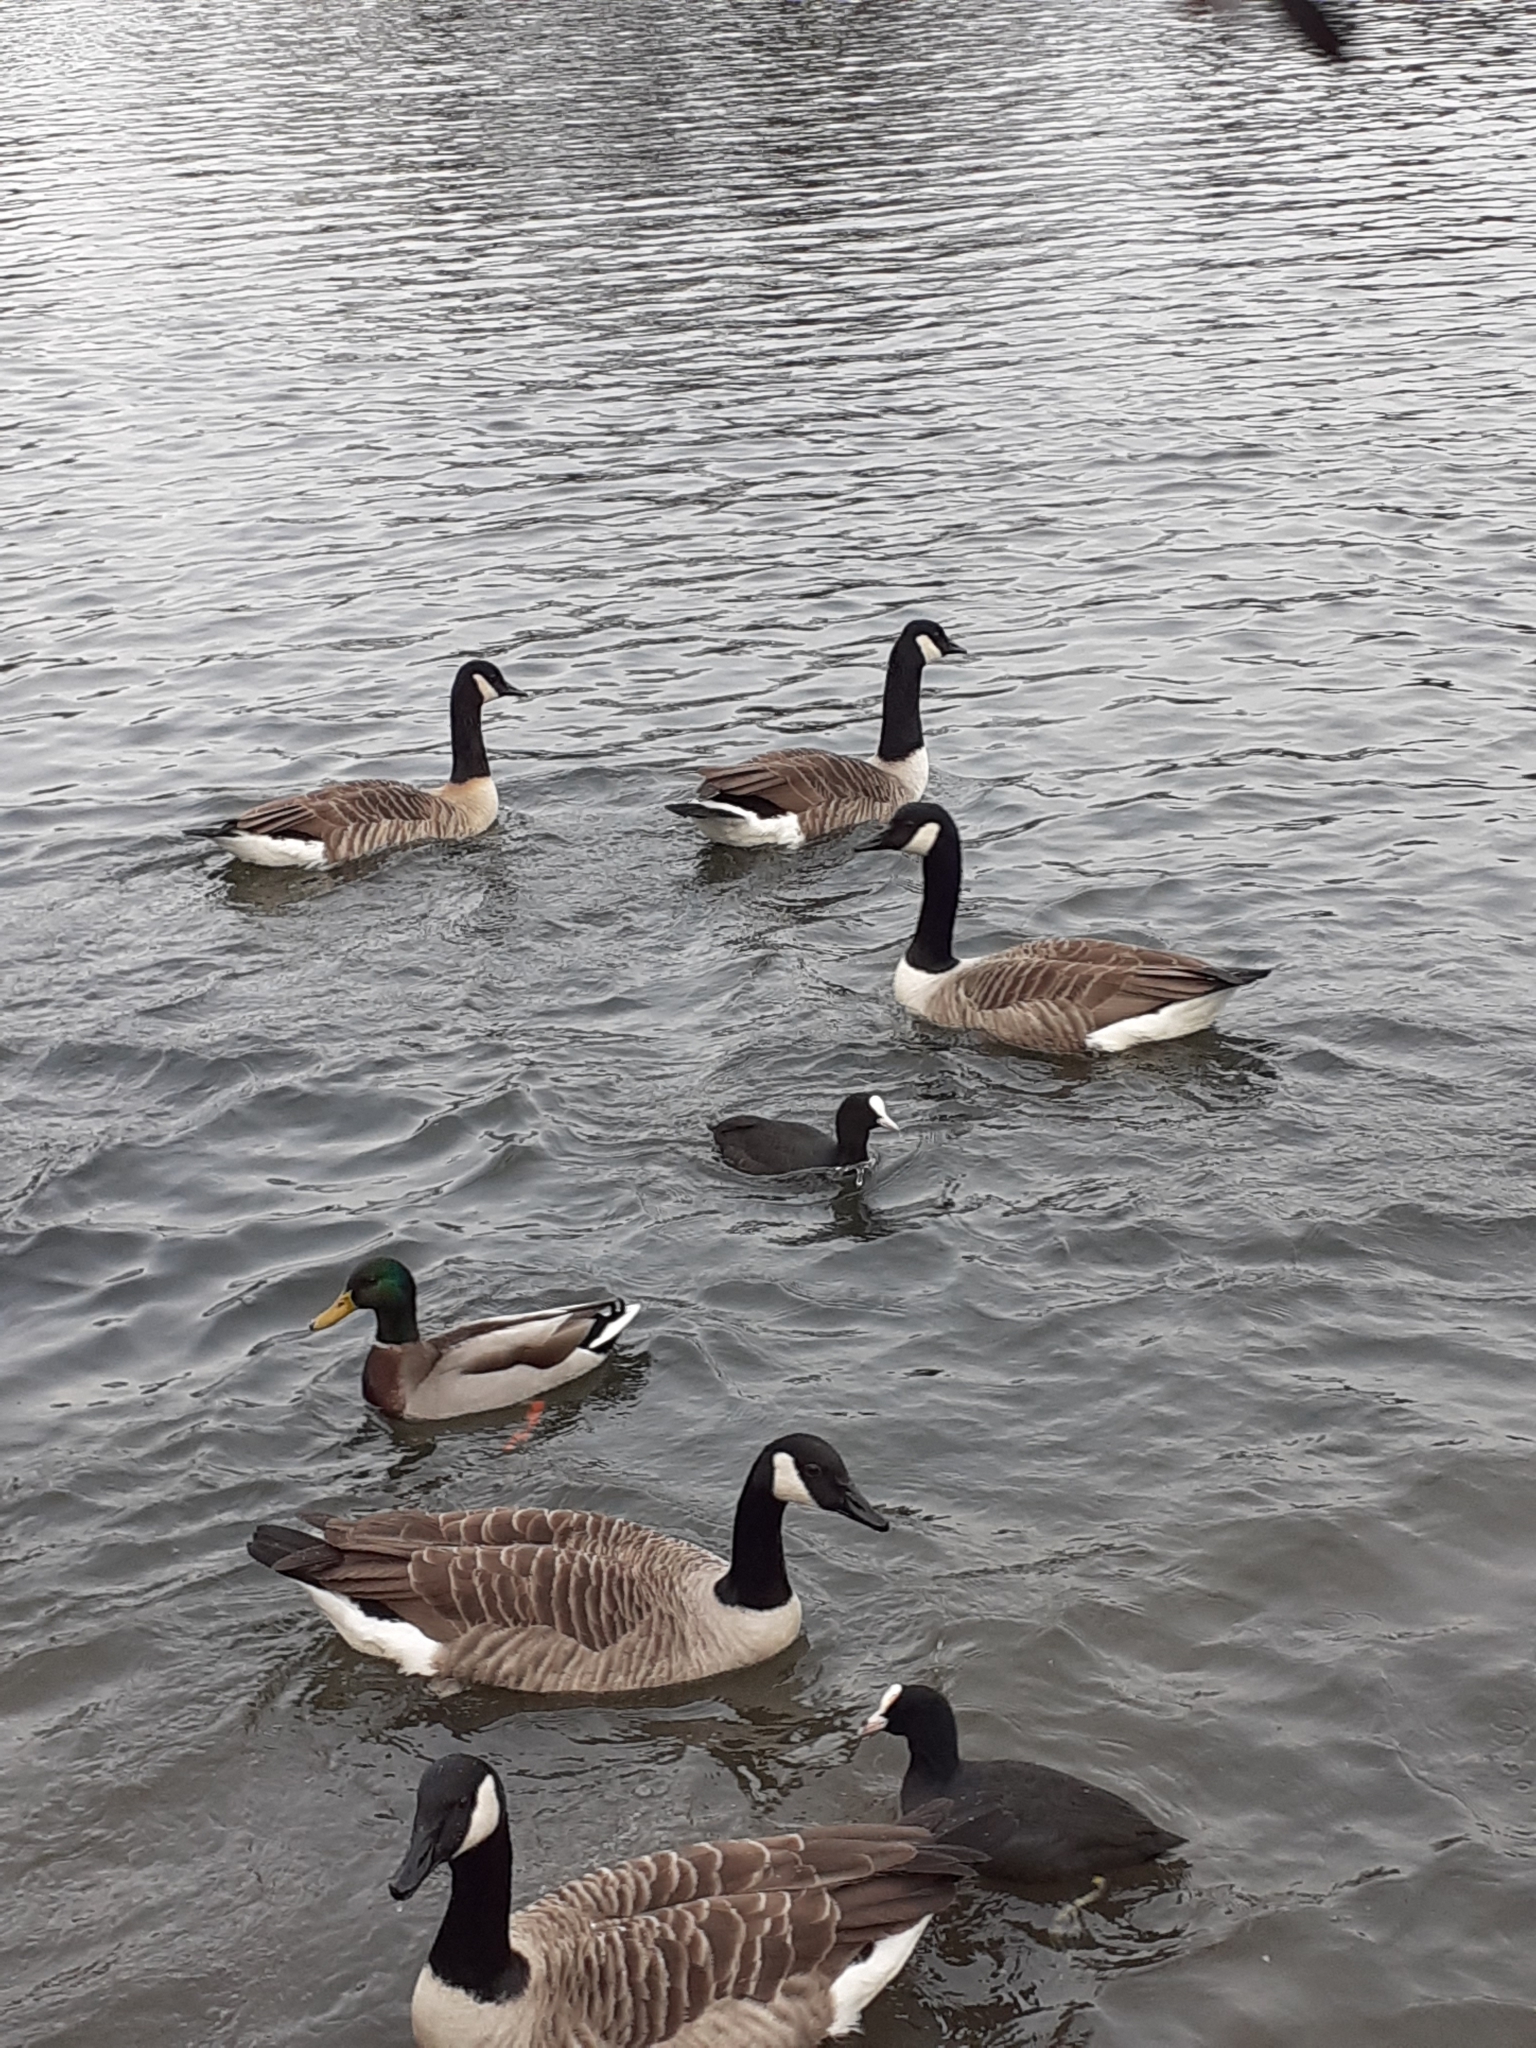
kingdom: Animalia
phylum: Chordata
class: Aves
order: Gruiformes
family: Rallidae
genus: Fulica
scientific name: Fulica atra
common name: Eurasian coot
